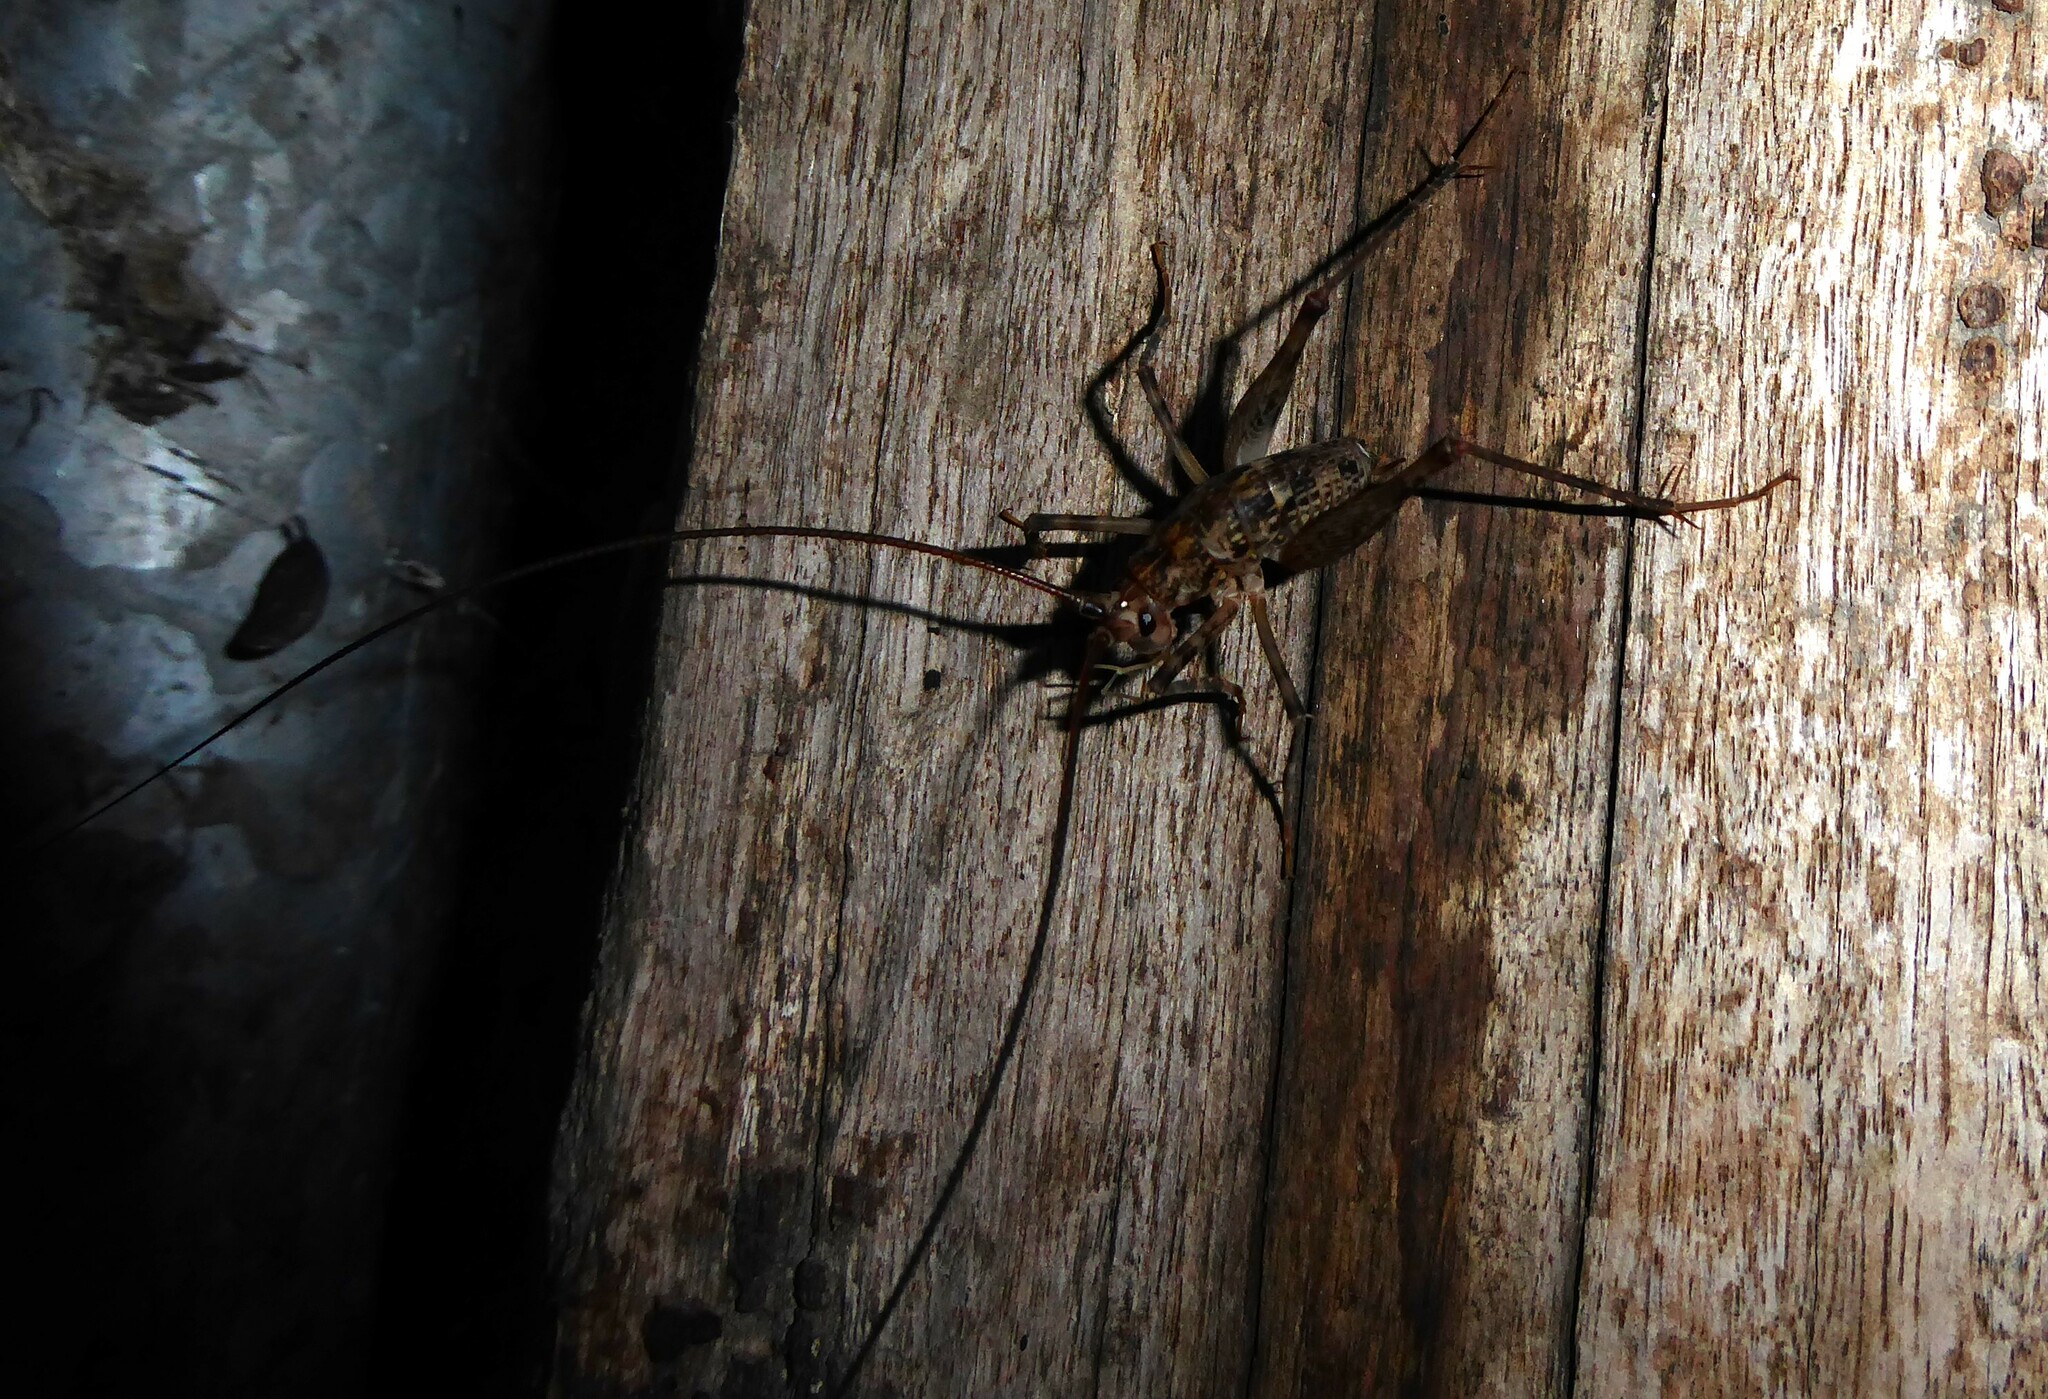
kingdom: Animalia
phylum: Arthropoda
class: Insecta
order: Orthoptera
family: Rhaphidophoridae
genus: Pleioplectron
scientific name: Pleioplectron simplex
